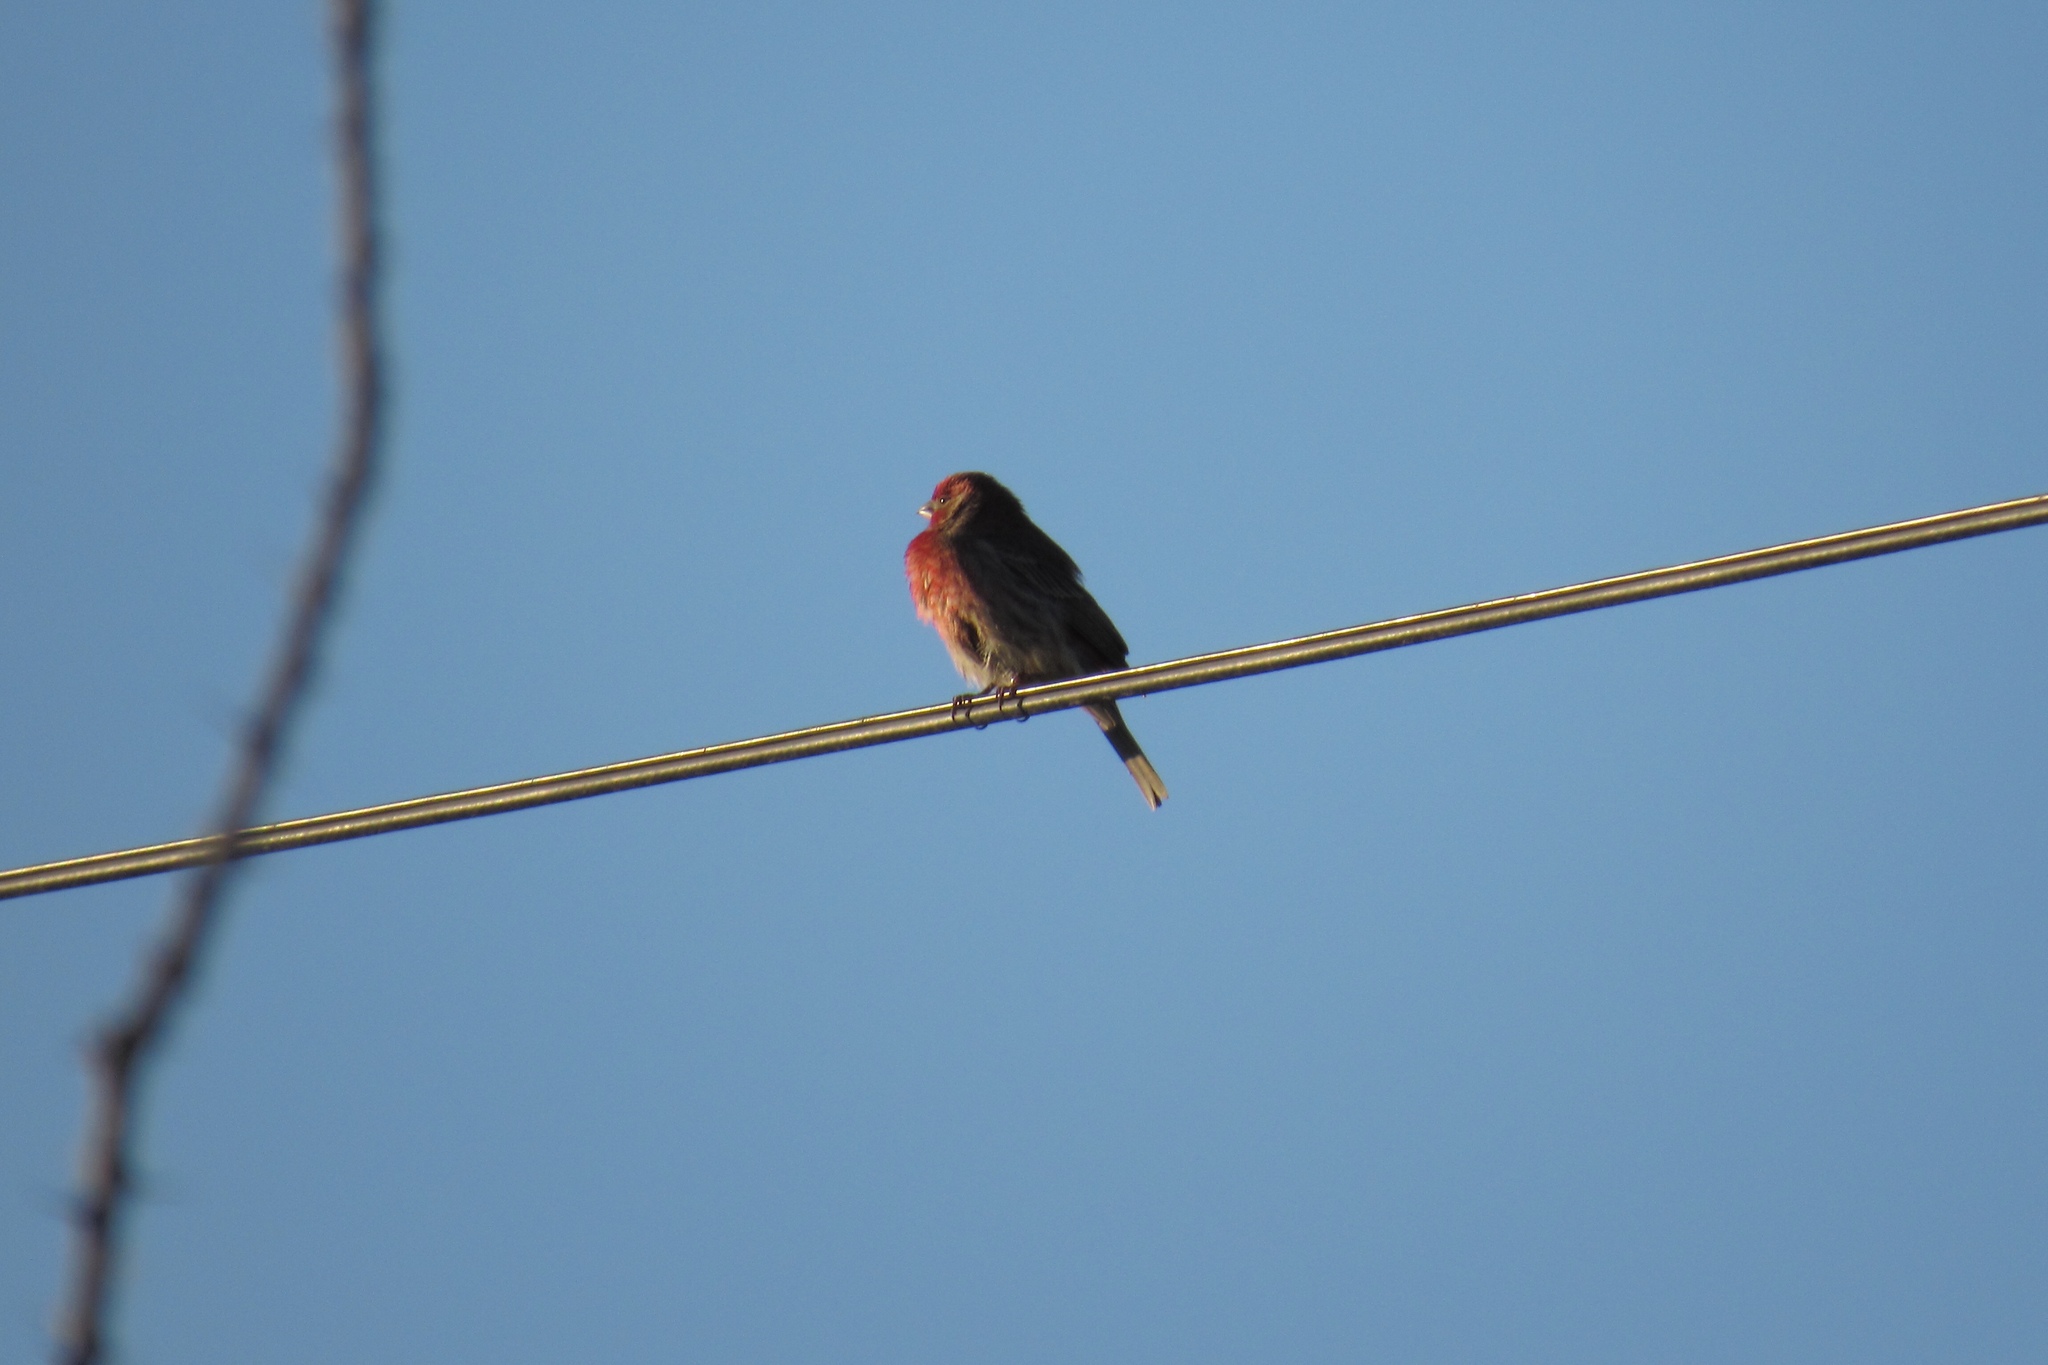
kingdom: Animalia
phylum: Chordata
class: Aves
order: Passeriformes
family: Fringillidae
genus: Haemorhous
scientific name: Haemorhous mexicanus
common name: House finch
